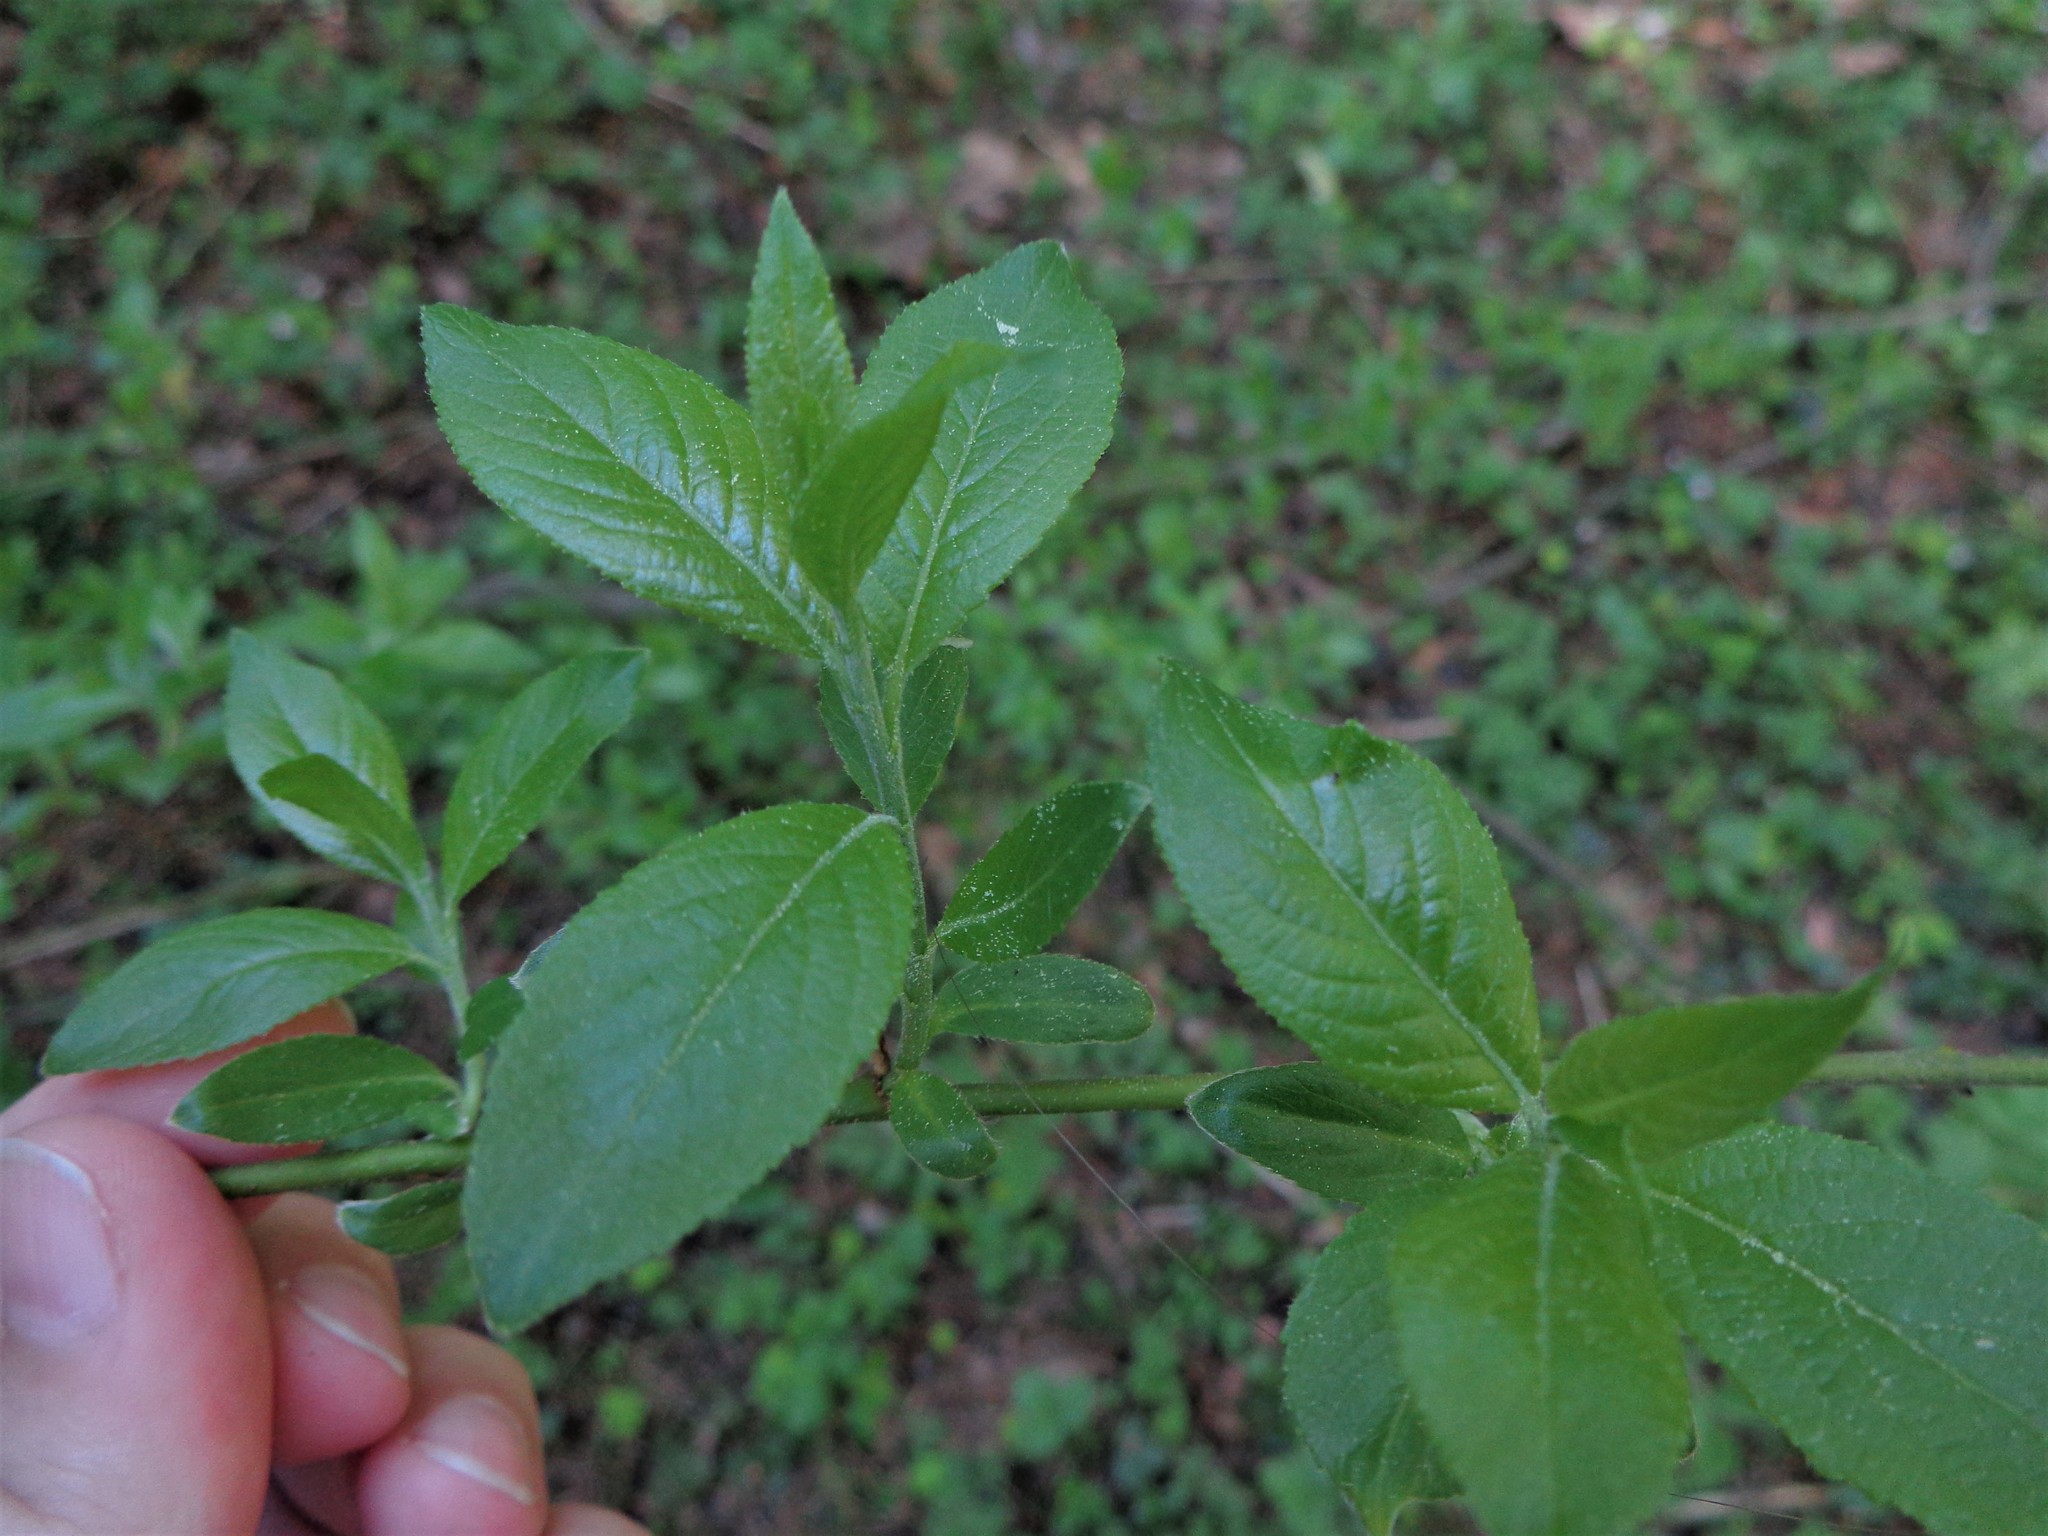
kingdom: Plantae
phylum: Tracheophyta
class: Magnoliopsida
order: Malpighiales
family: Salicaceae
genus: Salix
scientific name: Salix myrsinifolia
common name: Dark-leaved willow
